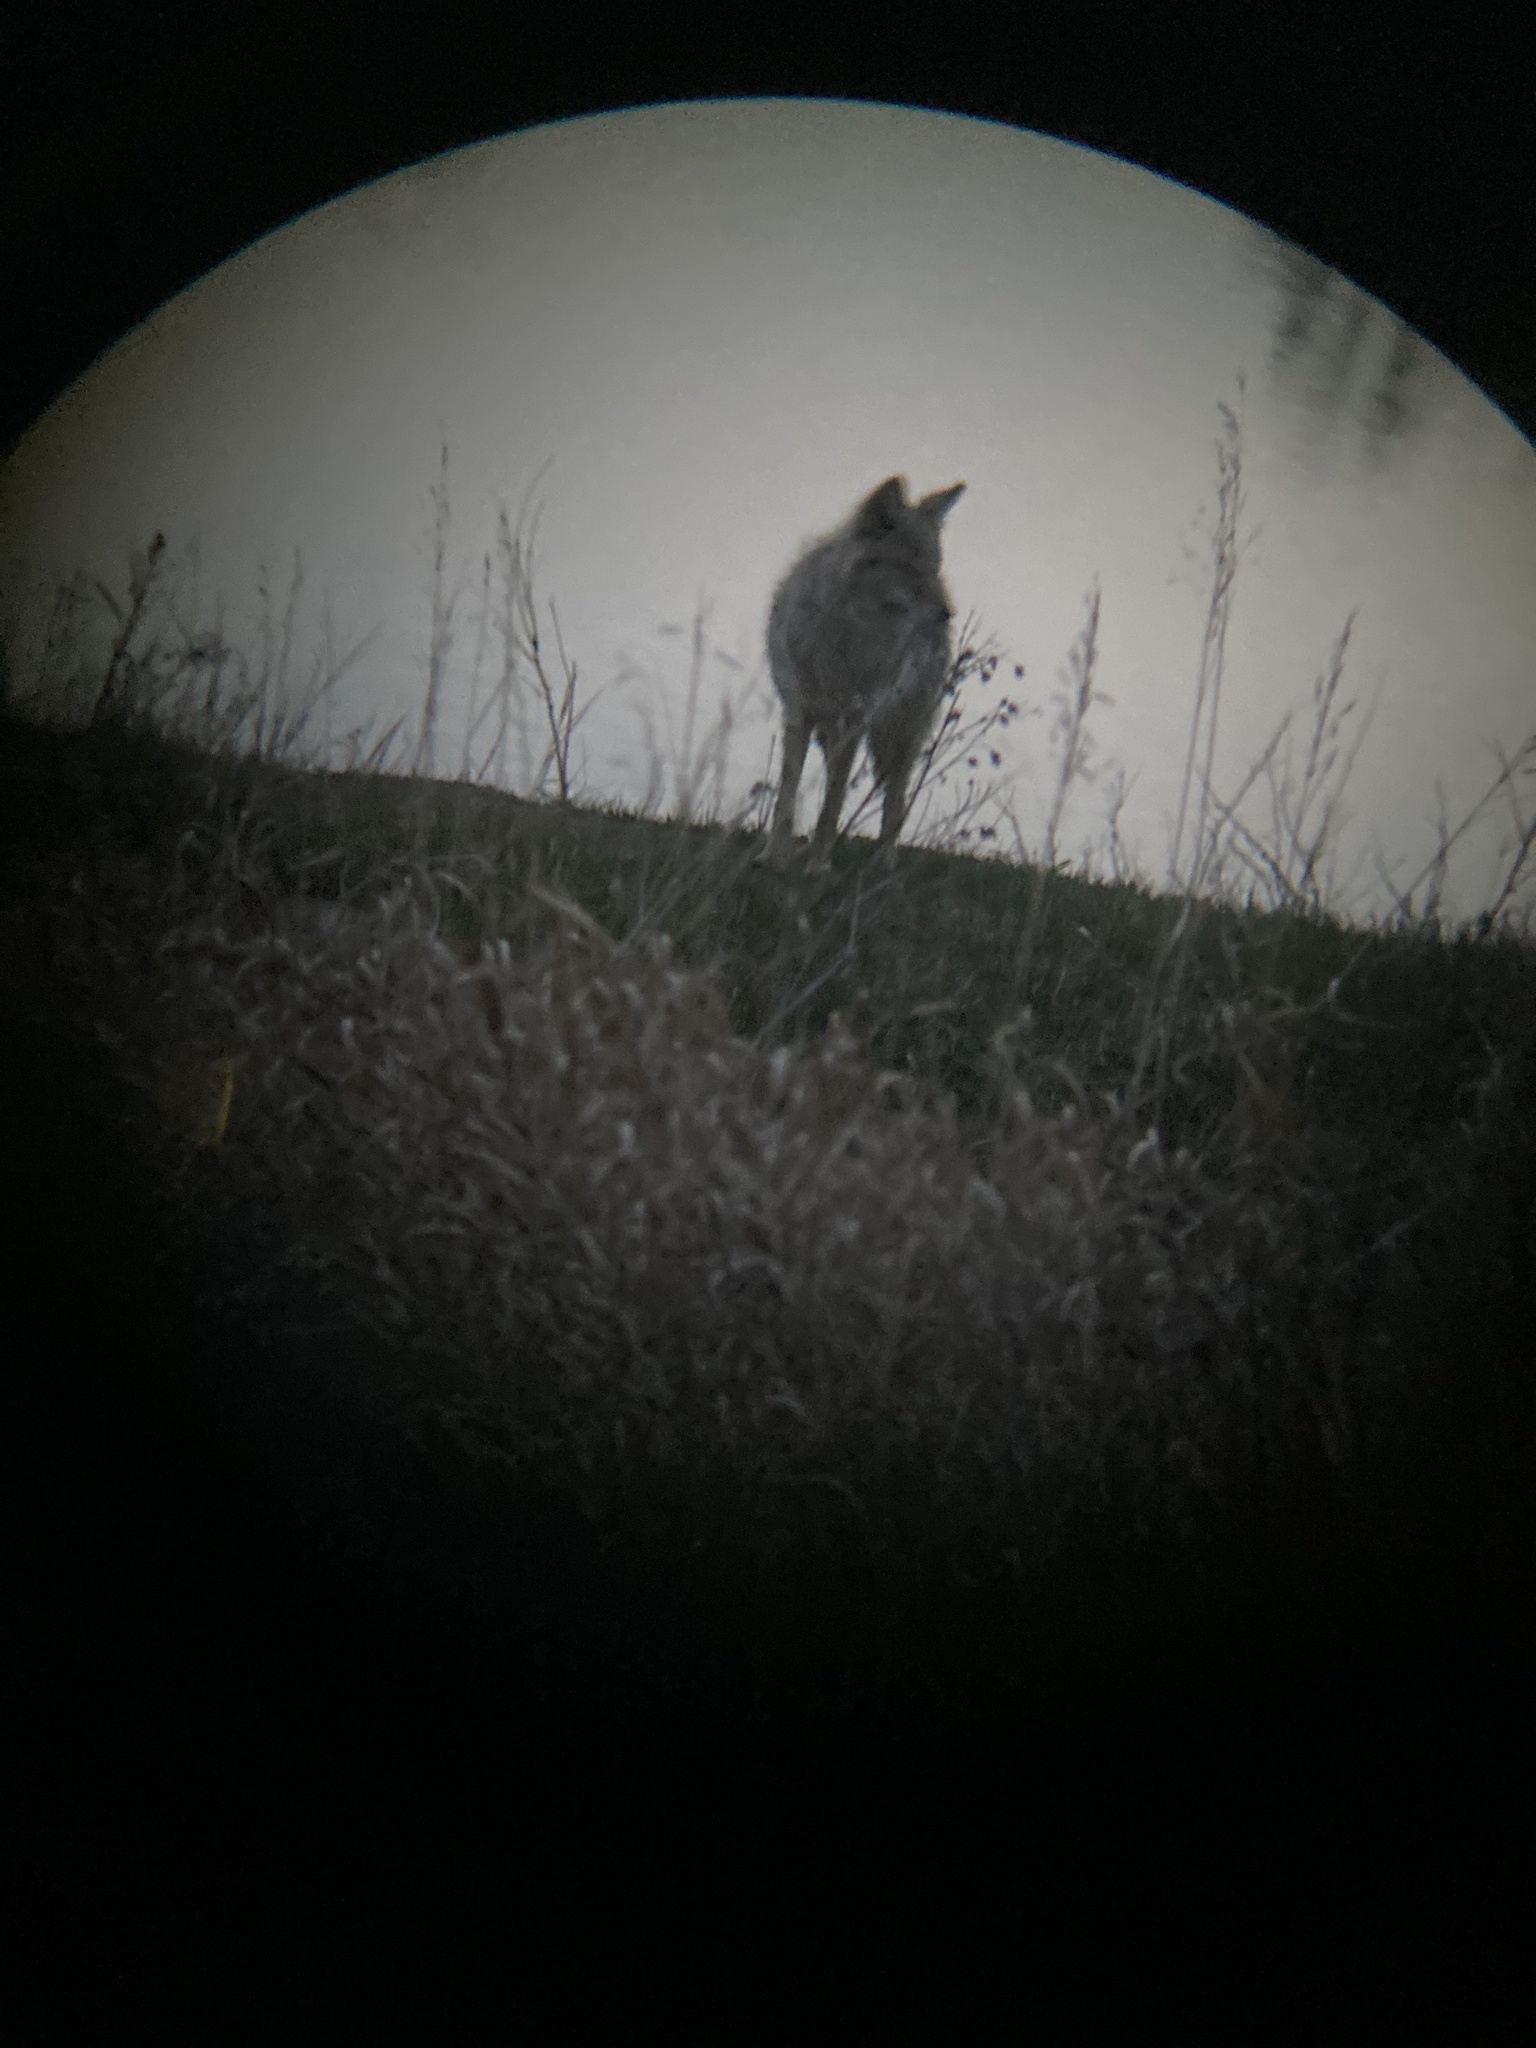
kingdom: Animalia
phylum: Chordata
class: Mammalia
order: Carnivora
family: Canidae
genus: Canis
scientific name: Canis latrans
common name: Coyote
